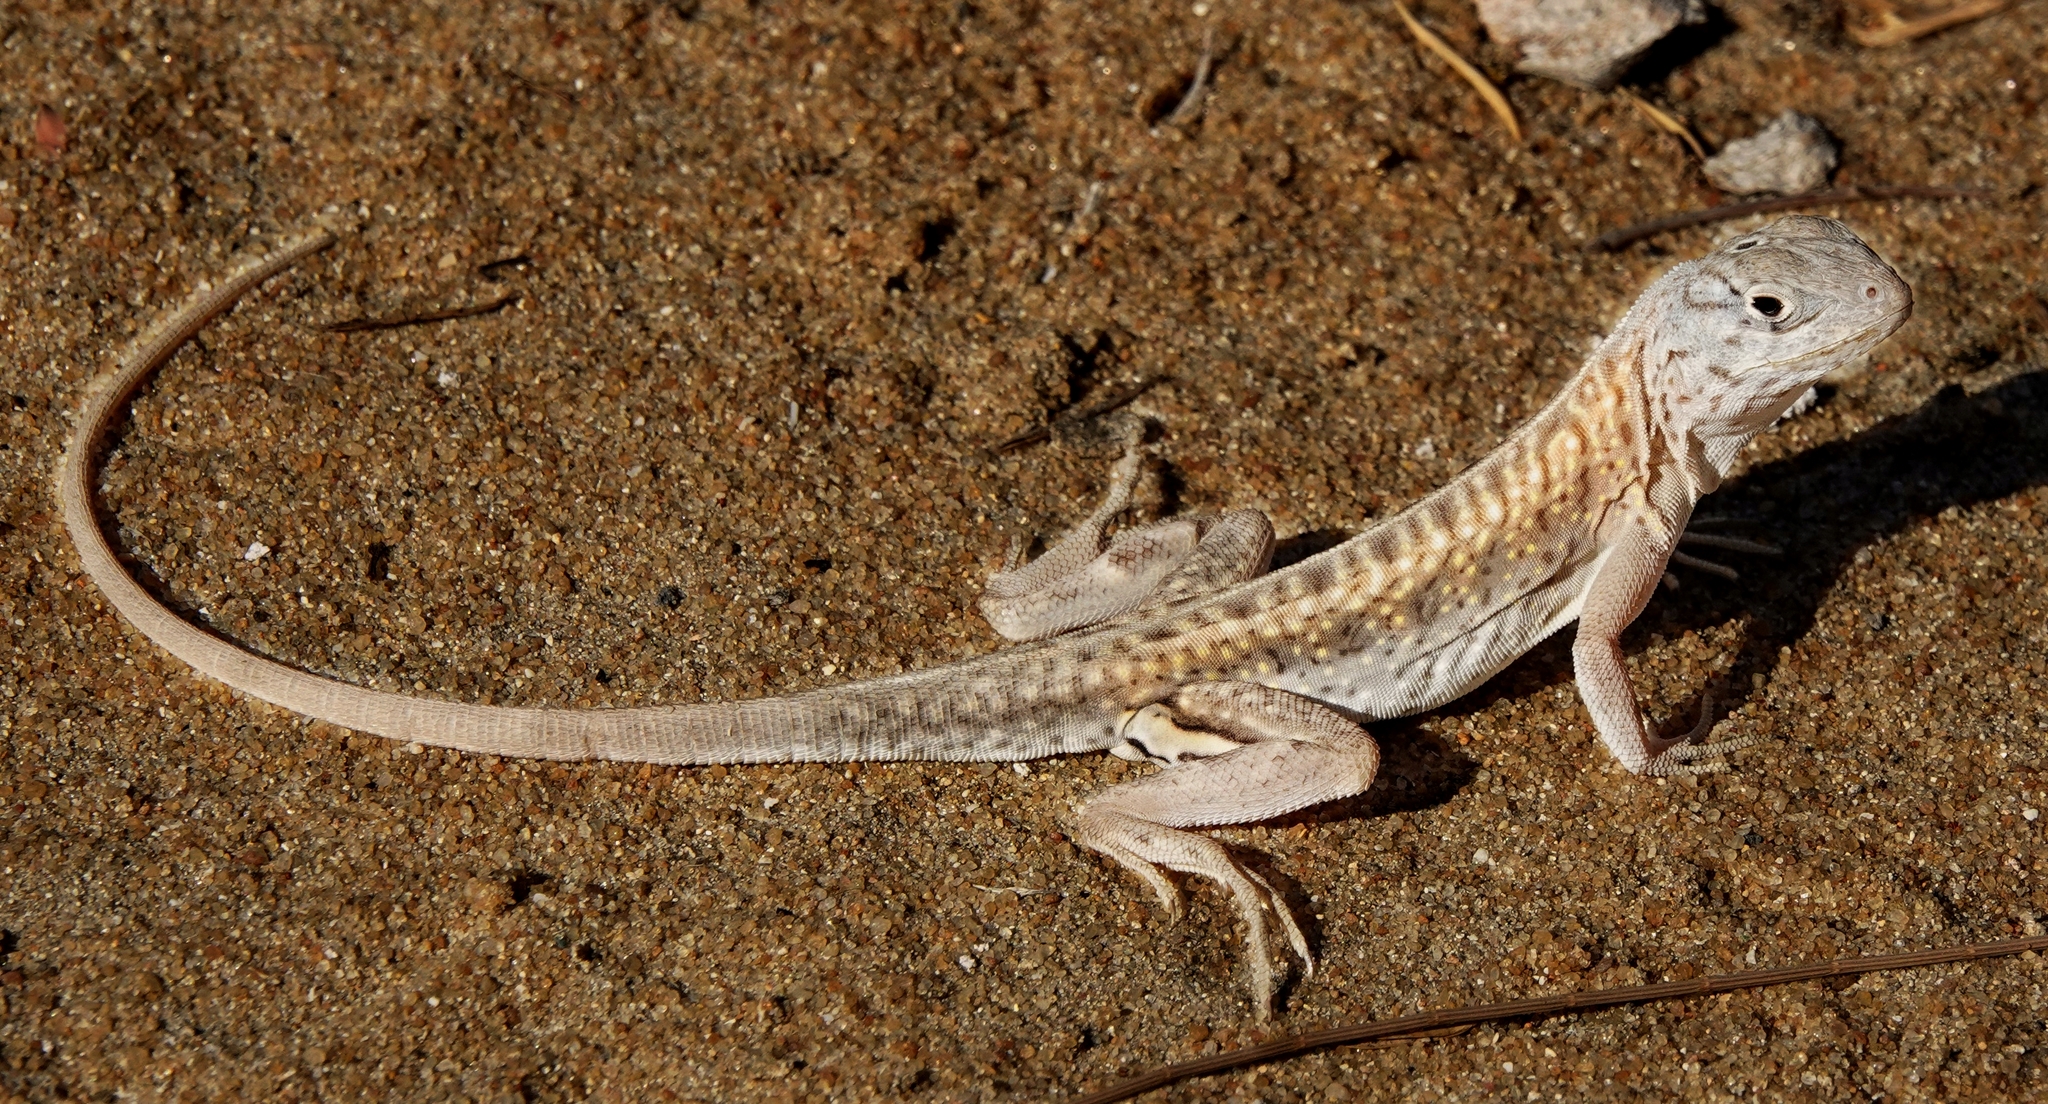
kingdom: Animalia
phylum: Chordata
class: Squamata
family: Opluridae
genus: Chalarodon
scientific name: Chalarodon madagascariensis
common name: Madagascar iguana
